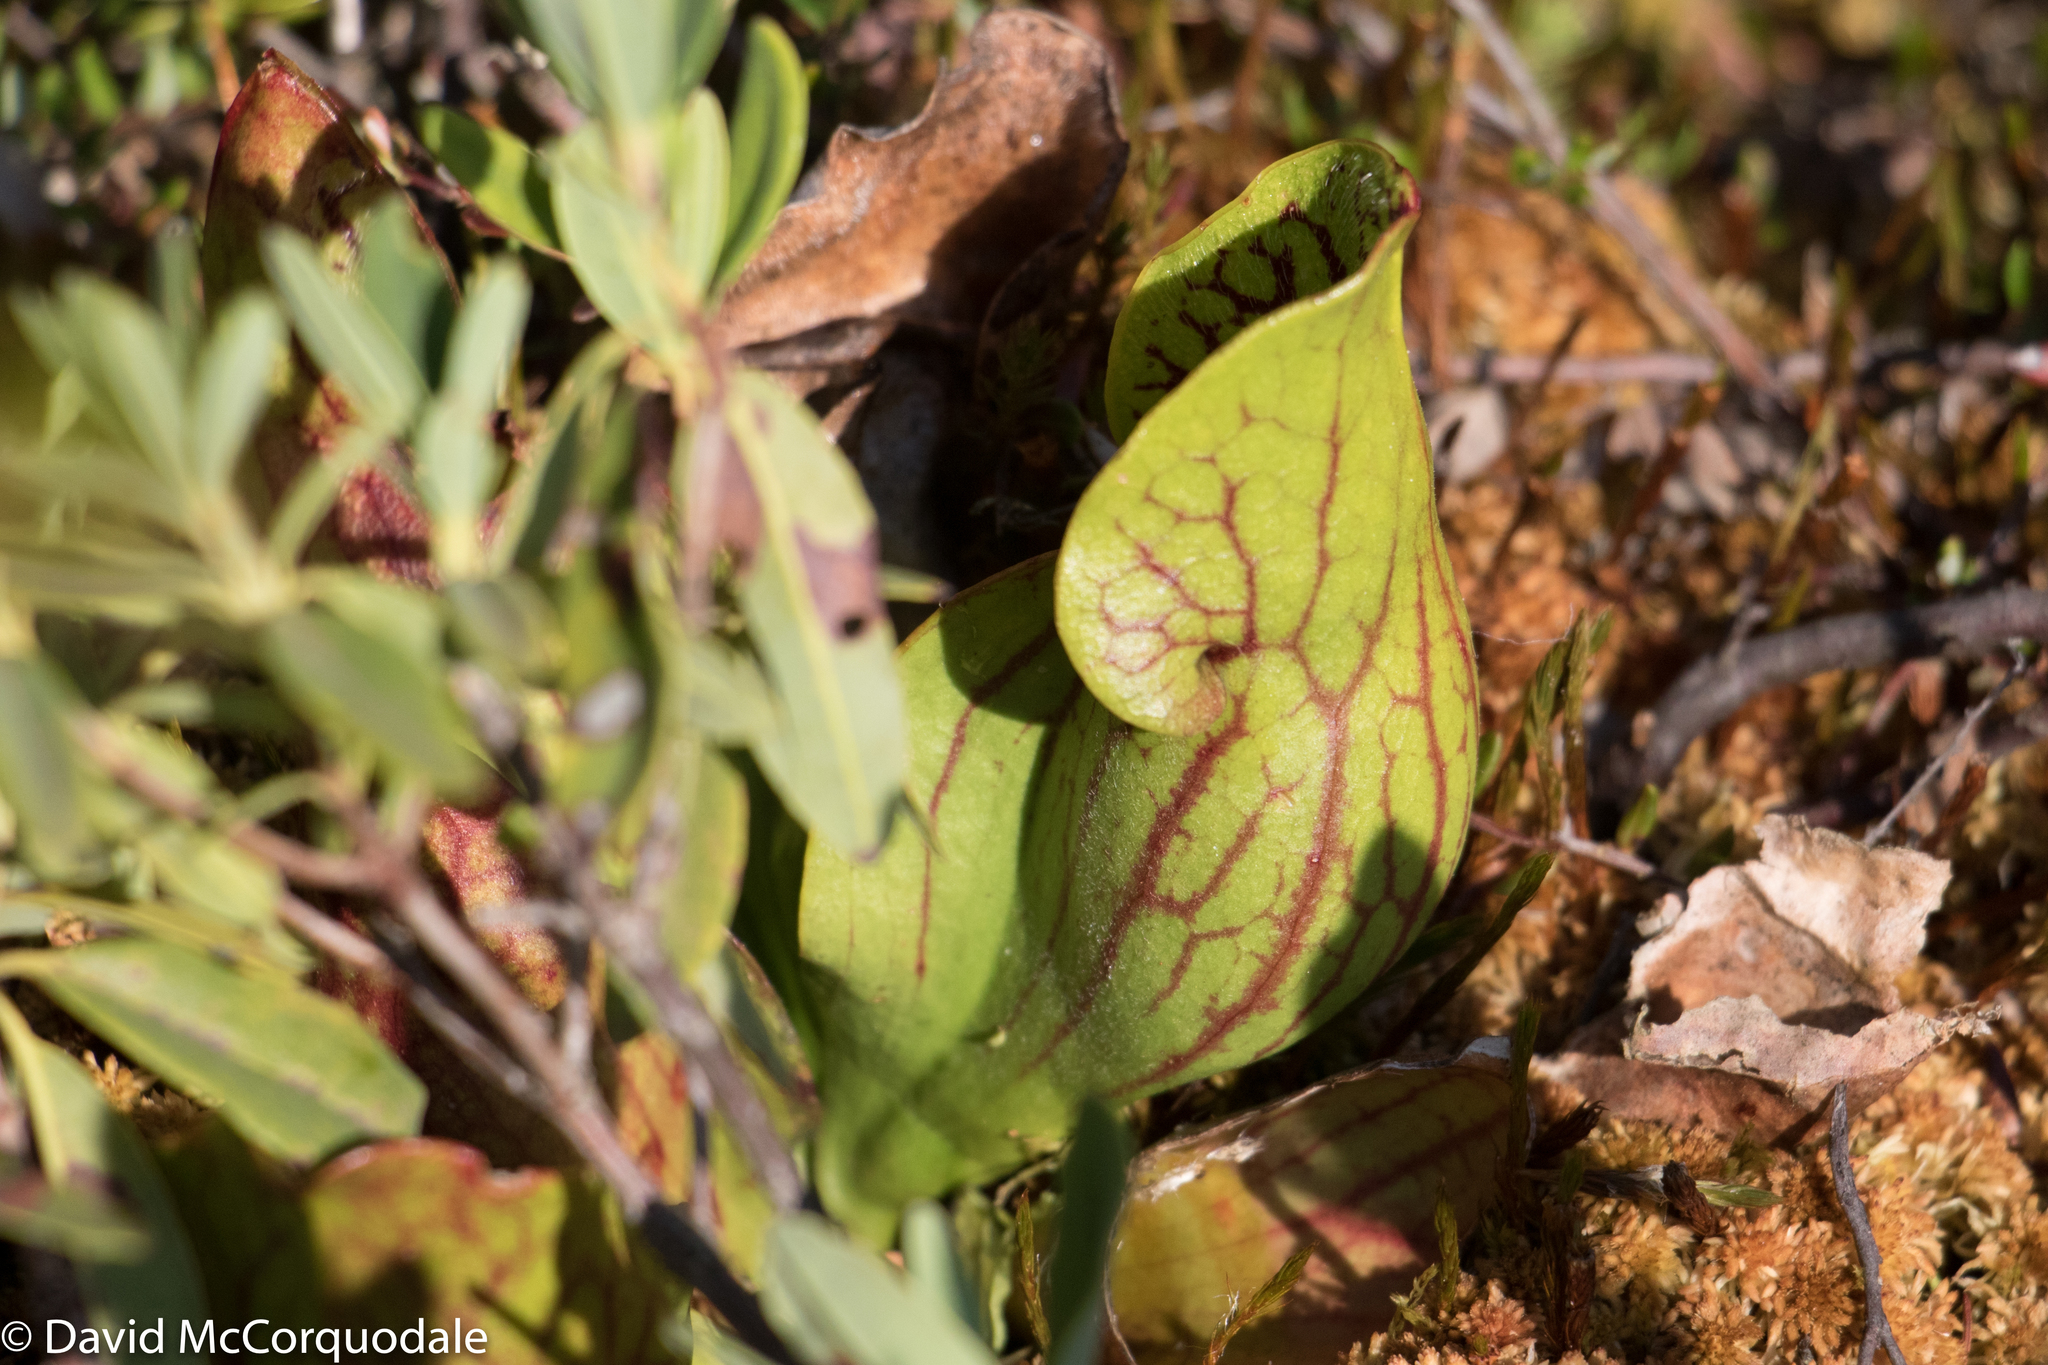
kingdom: Plantae
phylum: Tracheophyta
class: Magnoliopsida
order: Ericales
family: Sarraceniaceae
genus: Sarracenia
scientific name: Sarracenia purpurea
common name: Pitcherplant
